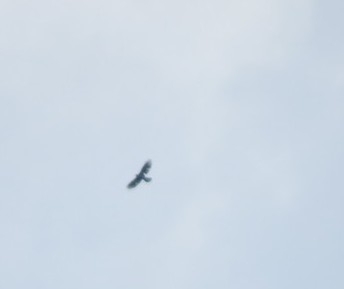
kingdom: Animalia
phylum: Chordata
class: Aves
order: Accipitriformes
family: Accipitridae
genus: Pernis
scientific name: Pernis apivorus
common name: European honey buzzard
